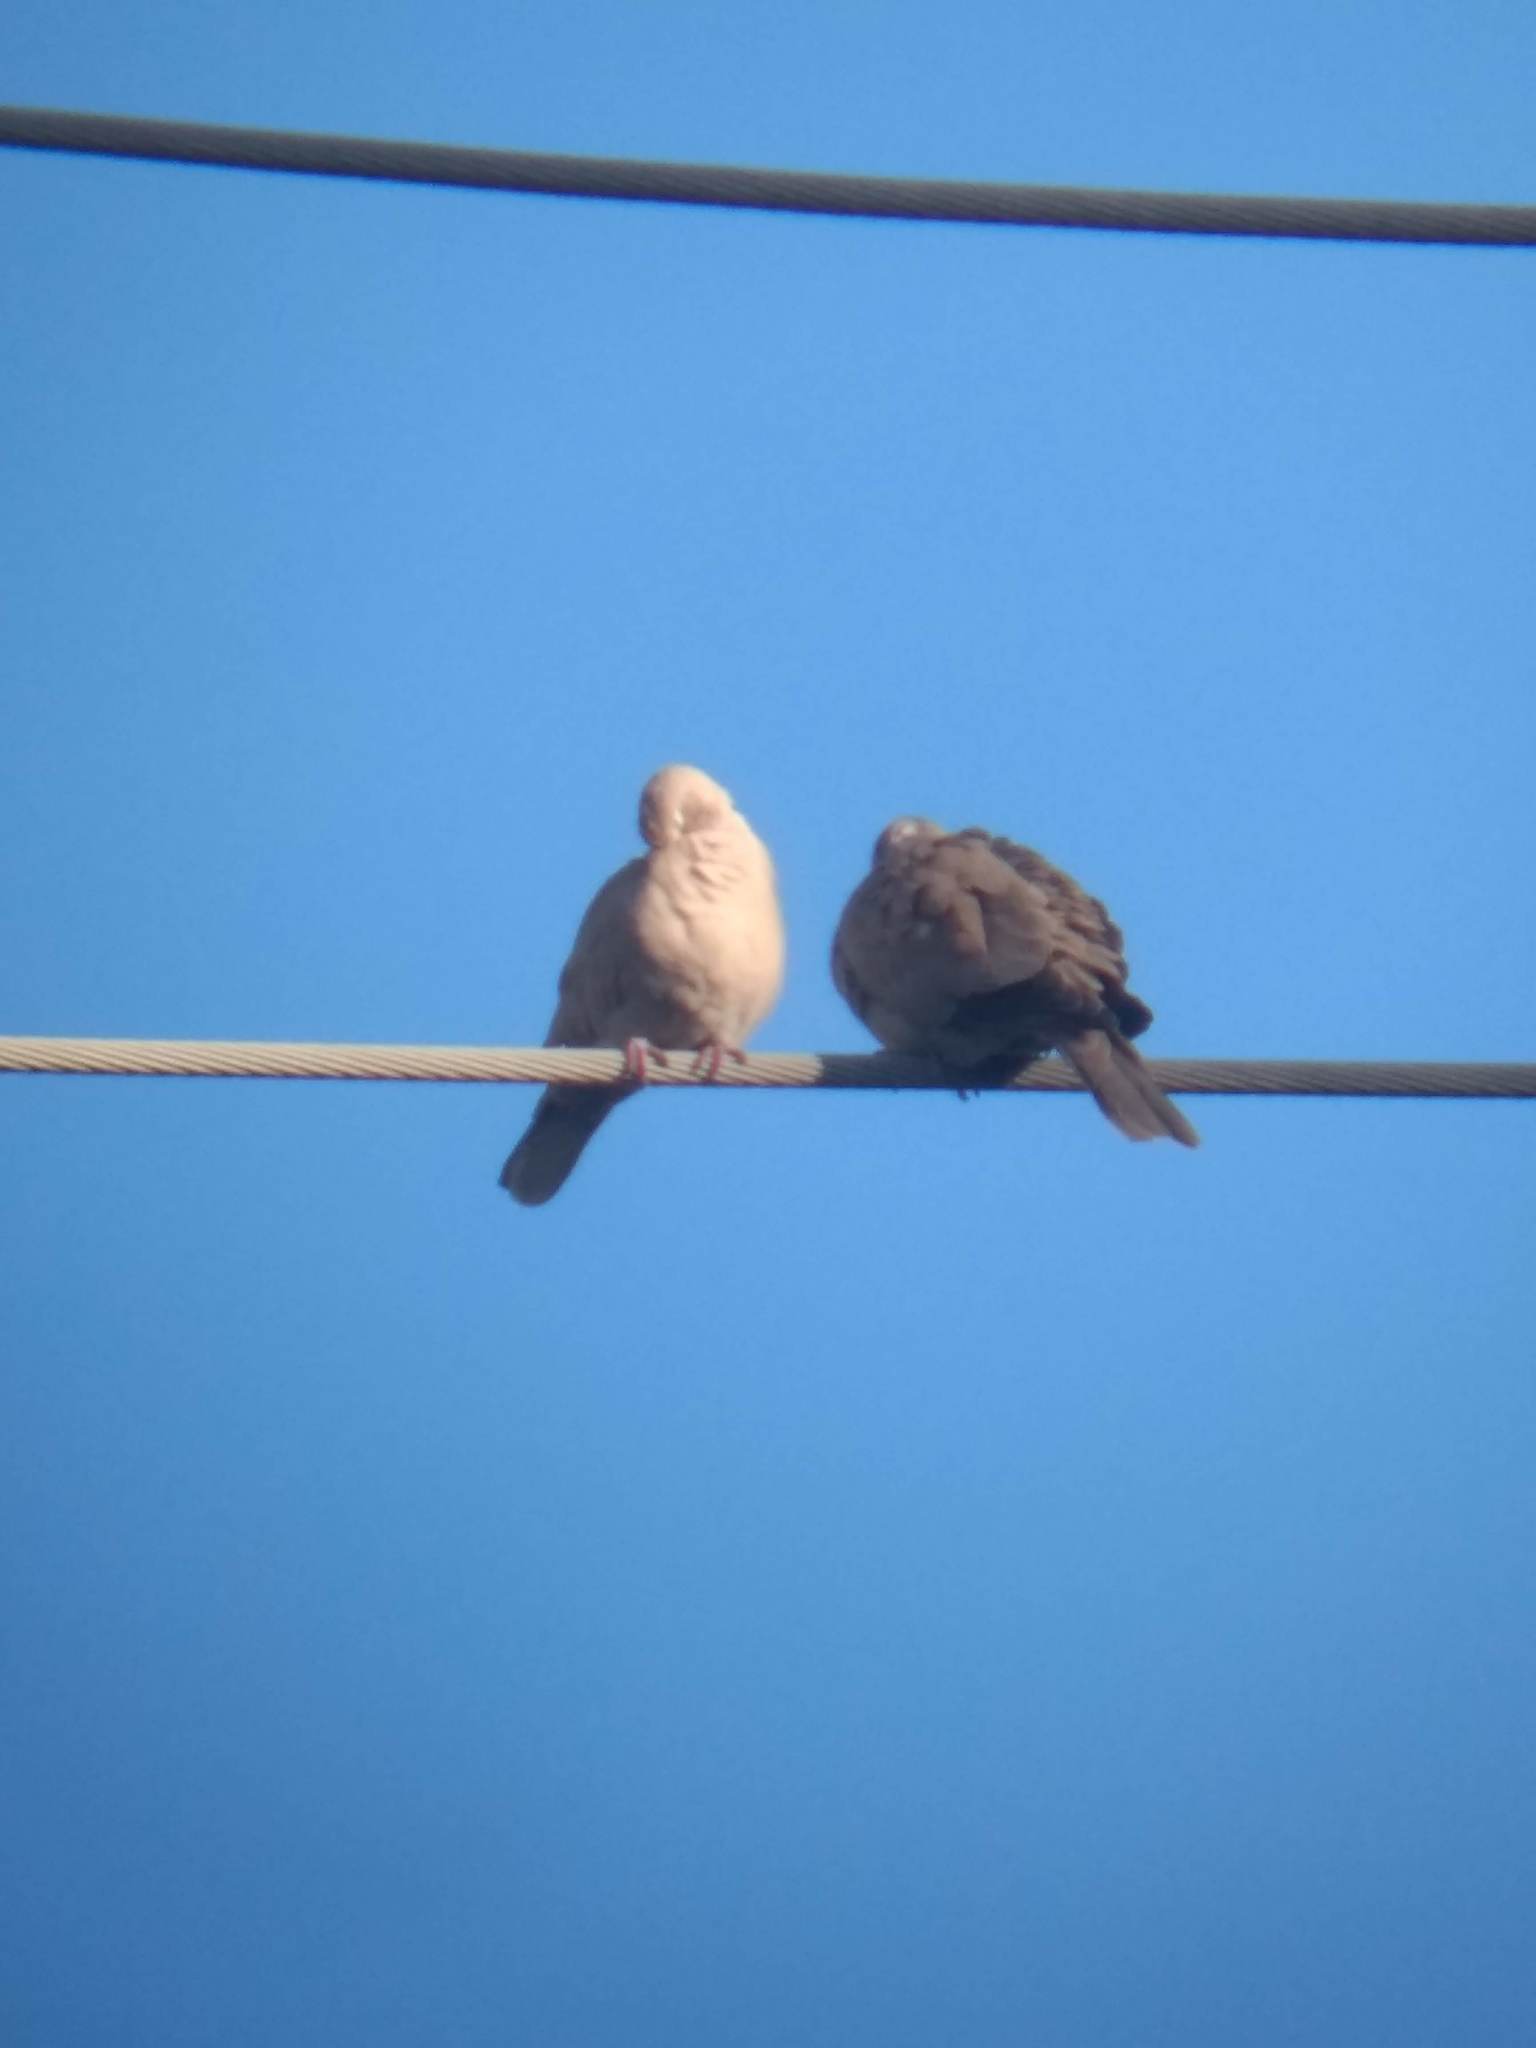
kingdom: Animalia
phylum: Chordata
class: Aves
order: Columbiformes
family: Columbidae
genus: Streptopelia
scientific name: Streptopelia decaocto
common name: Eurasian collared dove
